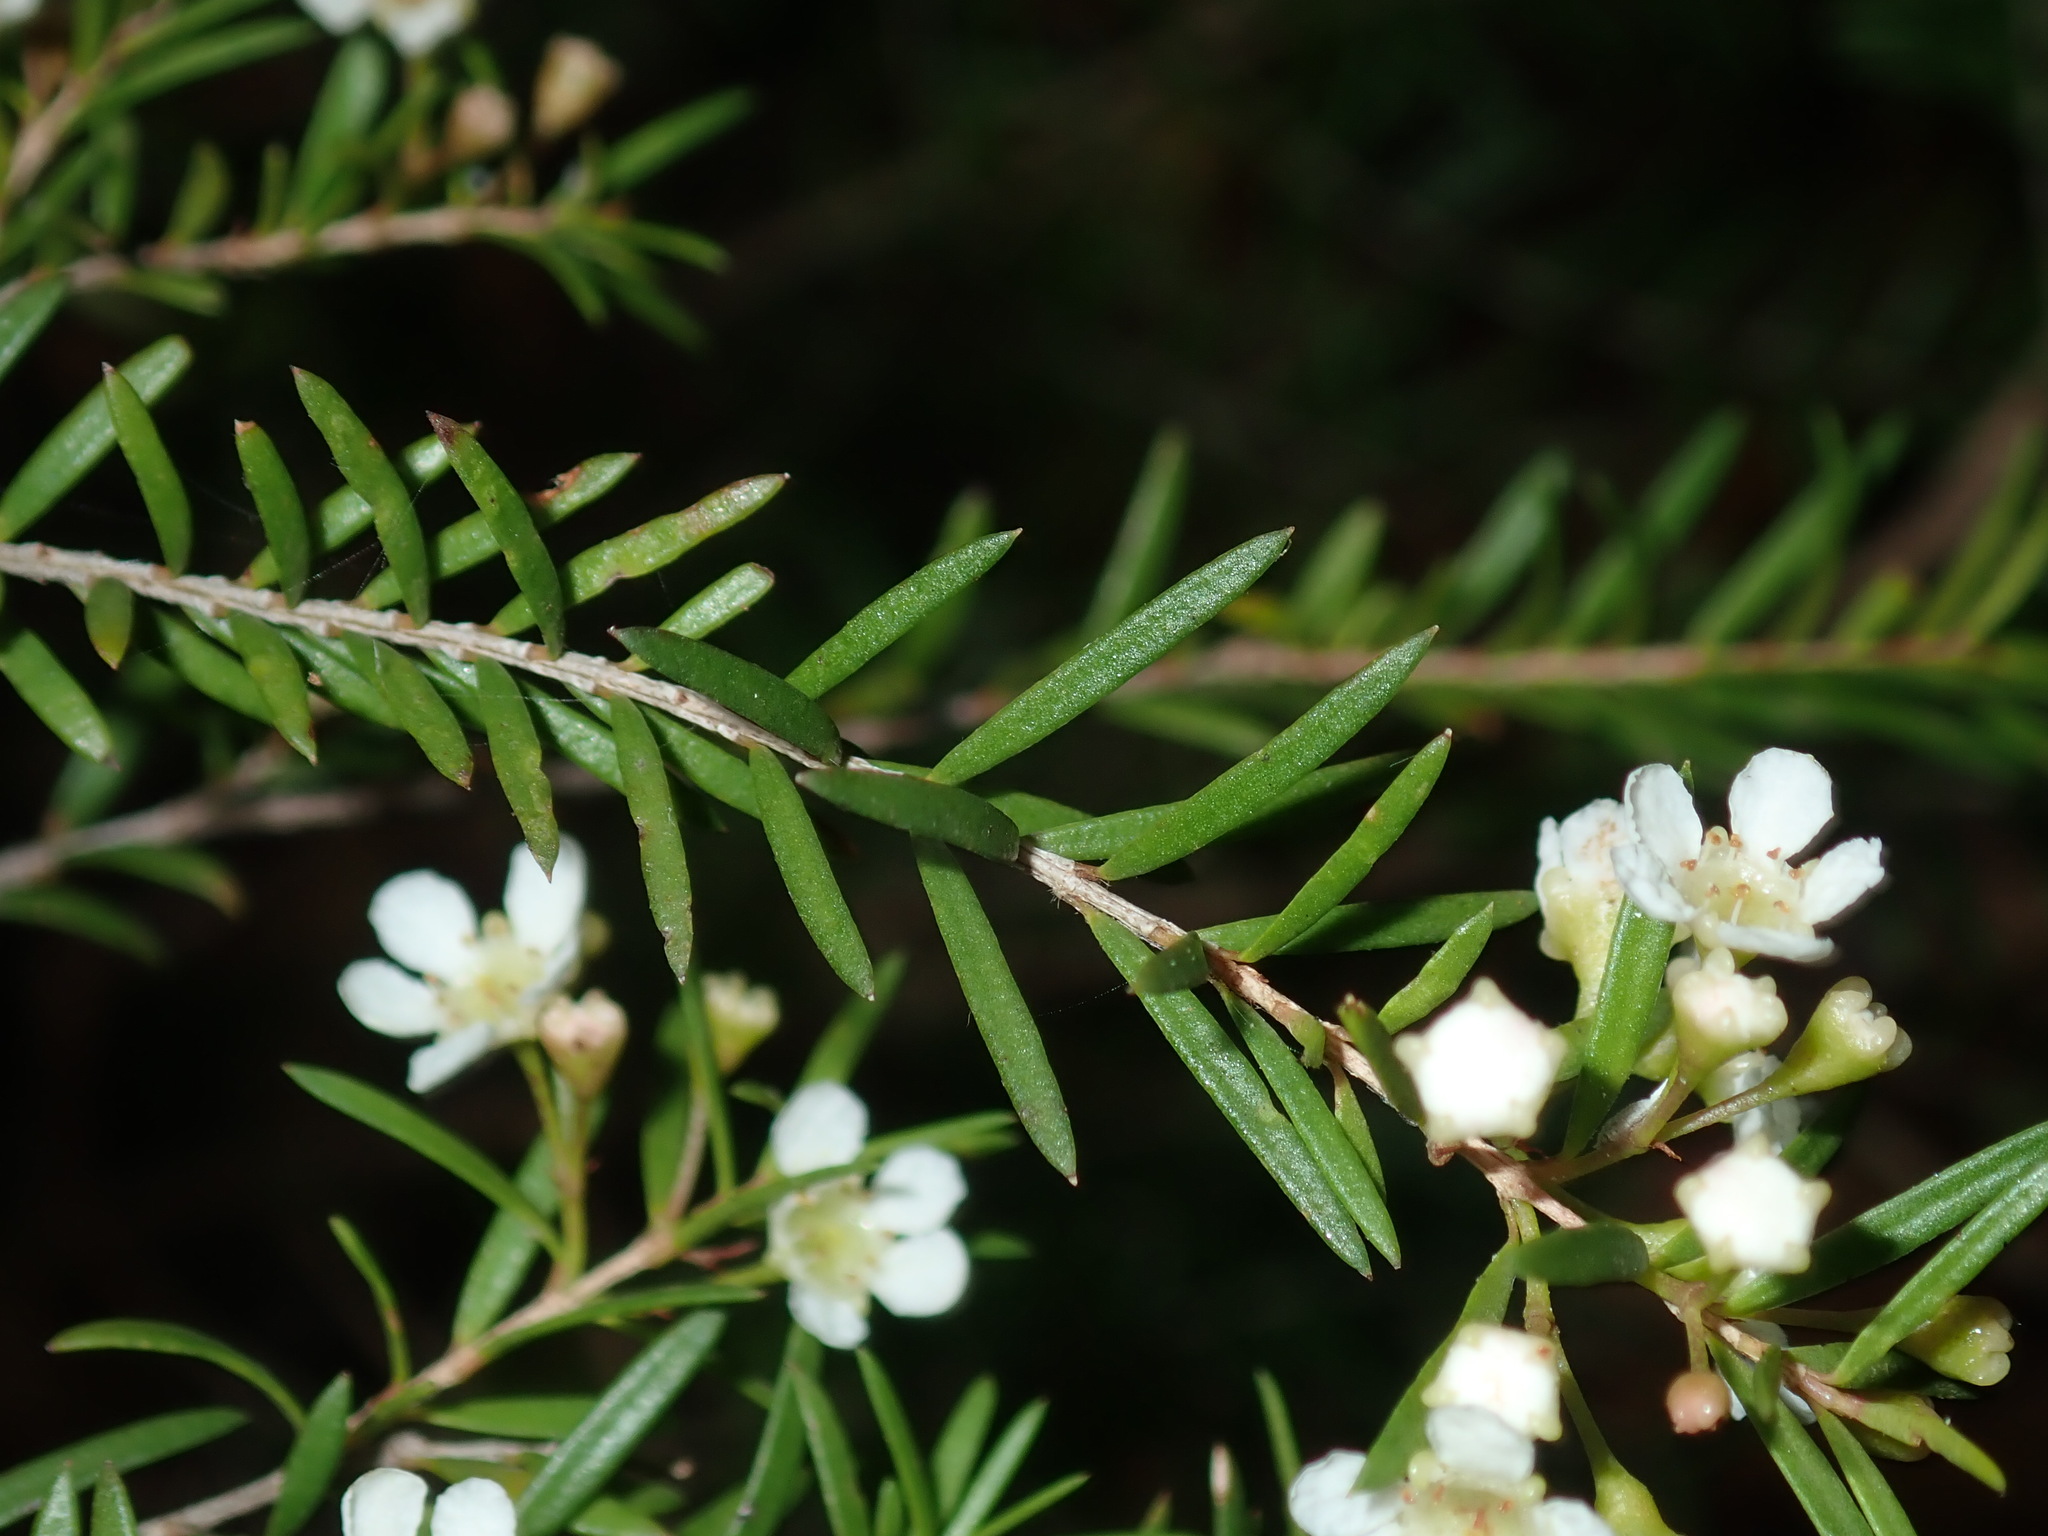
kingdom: Plantae
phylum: Tracheophyta
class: Magnoliopsida
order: Myrtales
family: Myrtaceae
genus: Sannantha
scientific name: Sannantha similis
